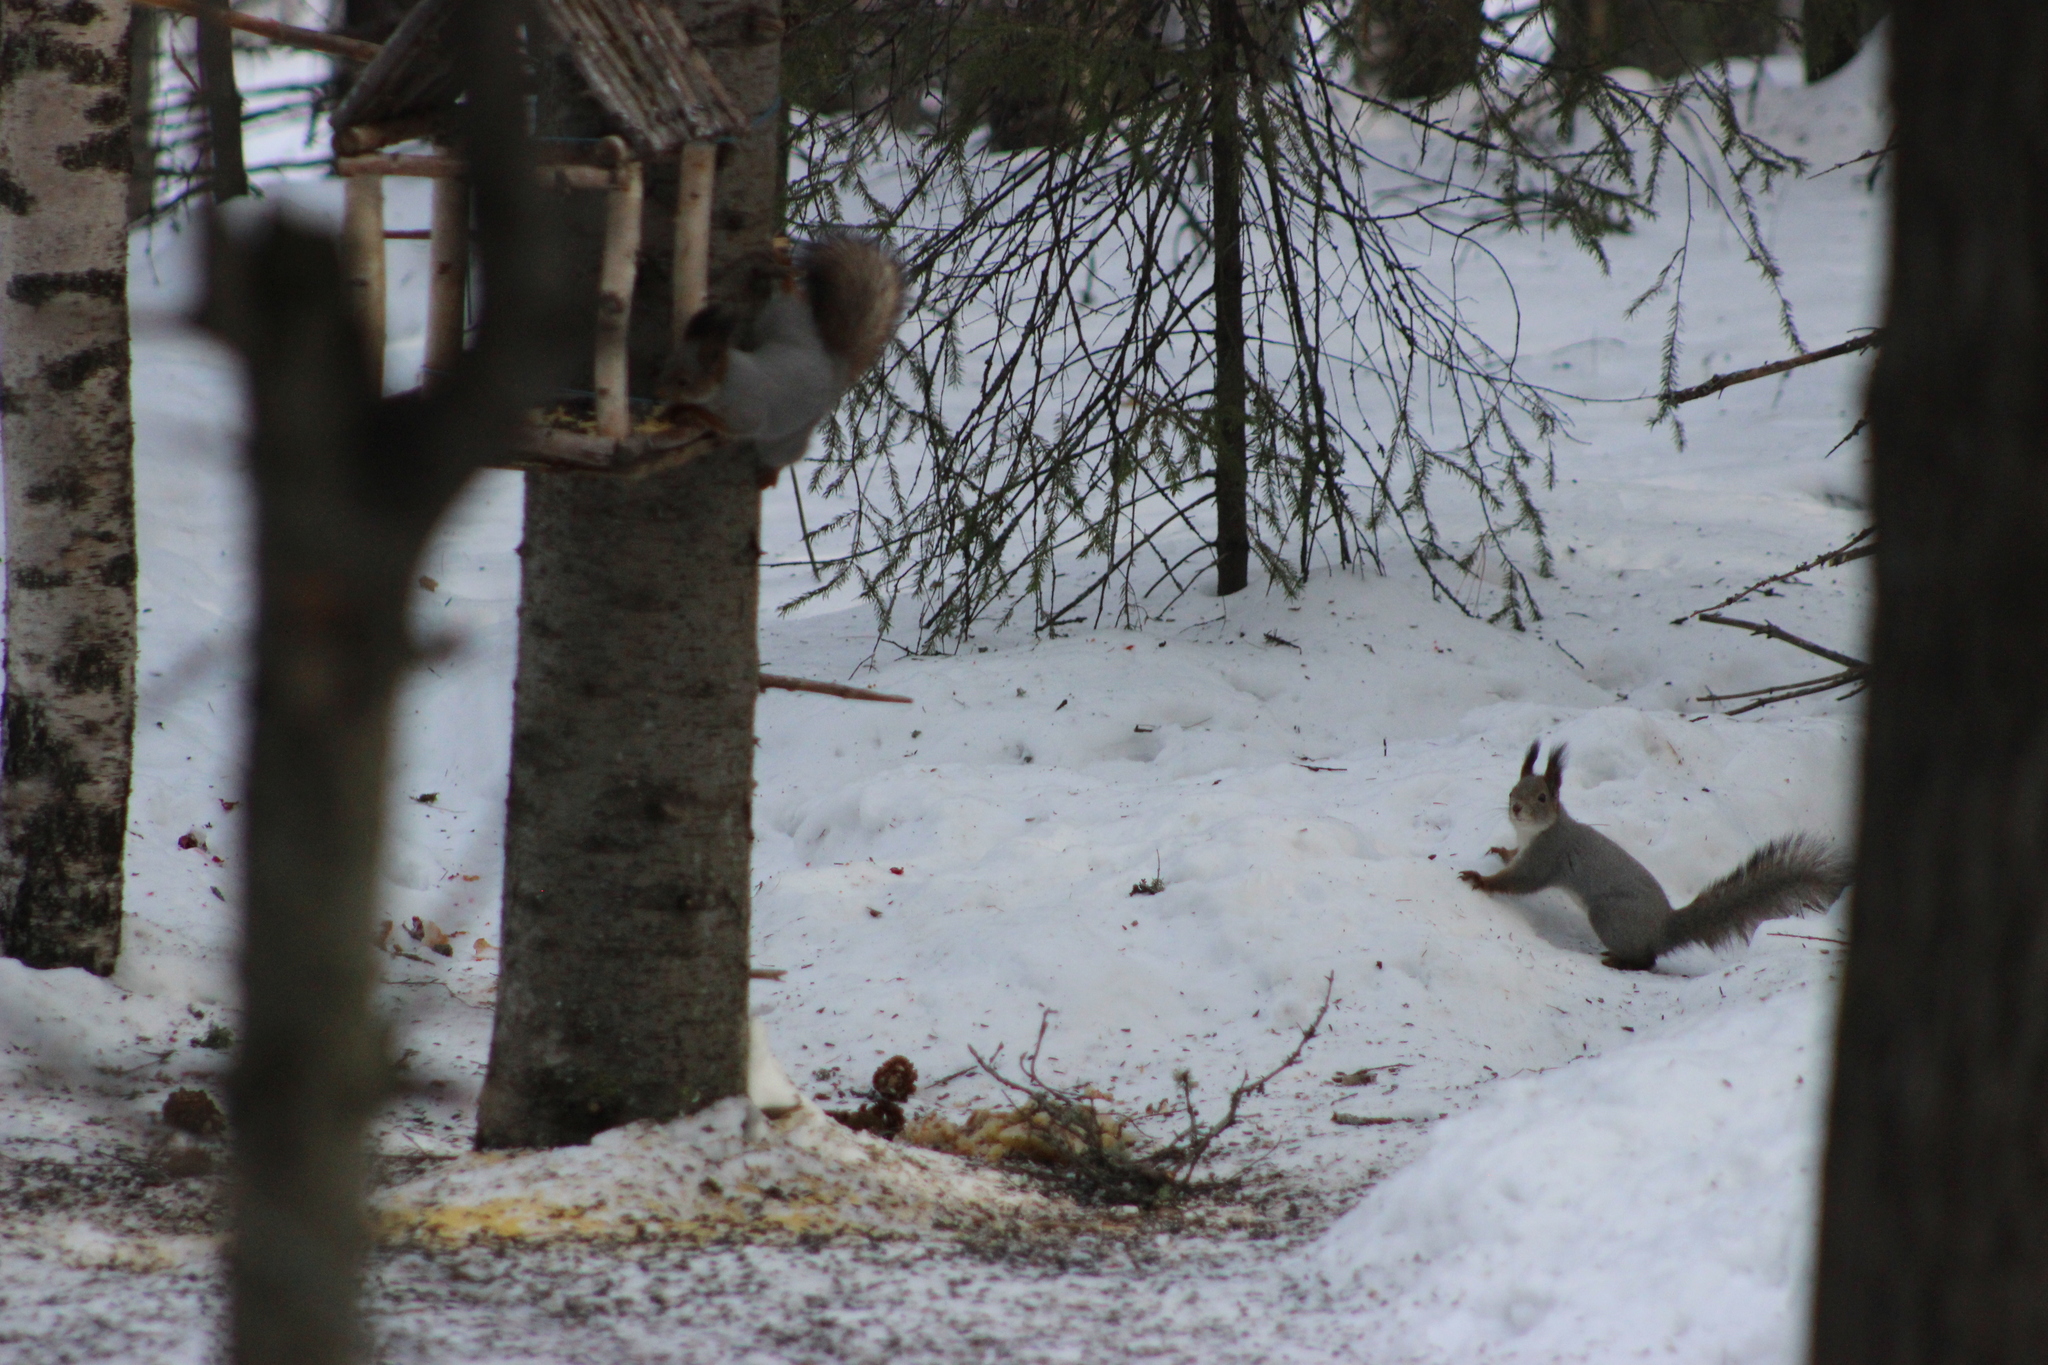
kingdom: Animalia
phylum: Chordata
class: Mammalia
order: Rodentia
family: Sciuridae
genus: Sciurus
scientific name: Sciurus vulgaris
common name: Eurasian red squirrel
